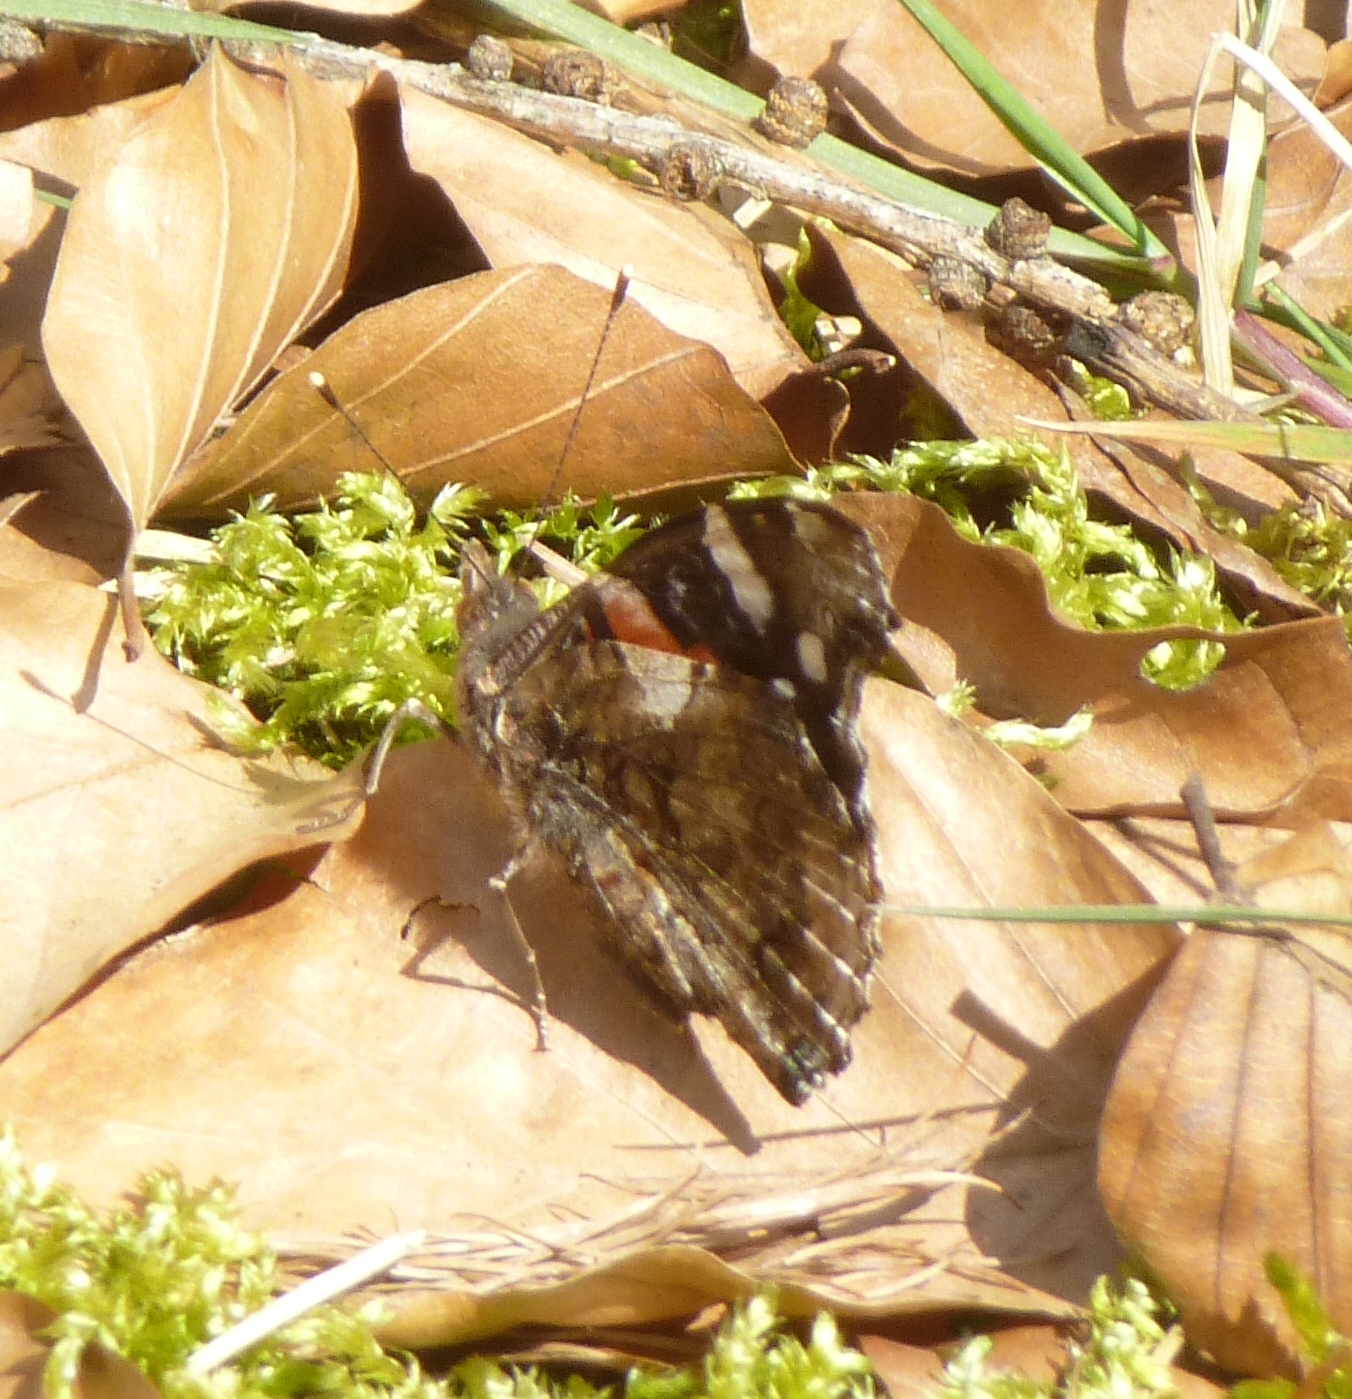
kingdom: Animalia
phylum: Arthropoda
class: Insecta
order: Lepidoptera
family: Nymphalidae
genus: Vanessa
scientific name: Vanessa atalanta
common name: Red admiral
